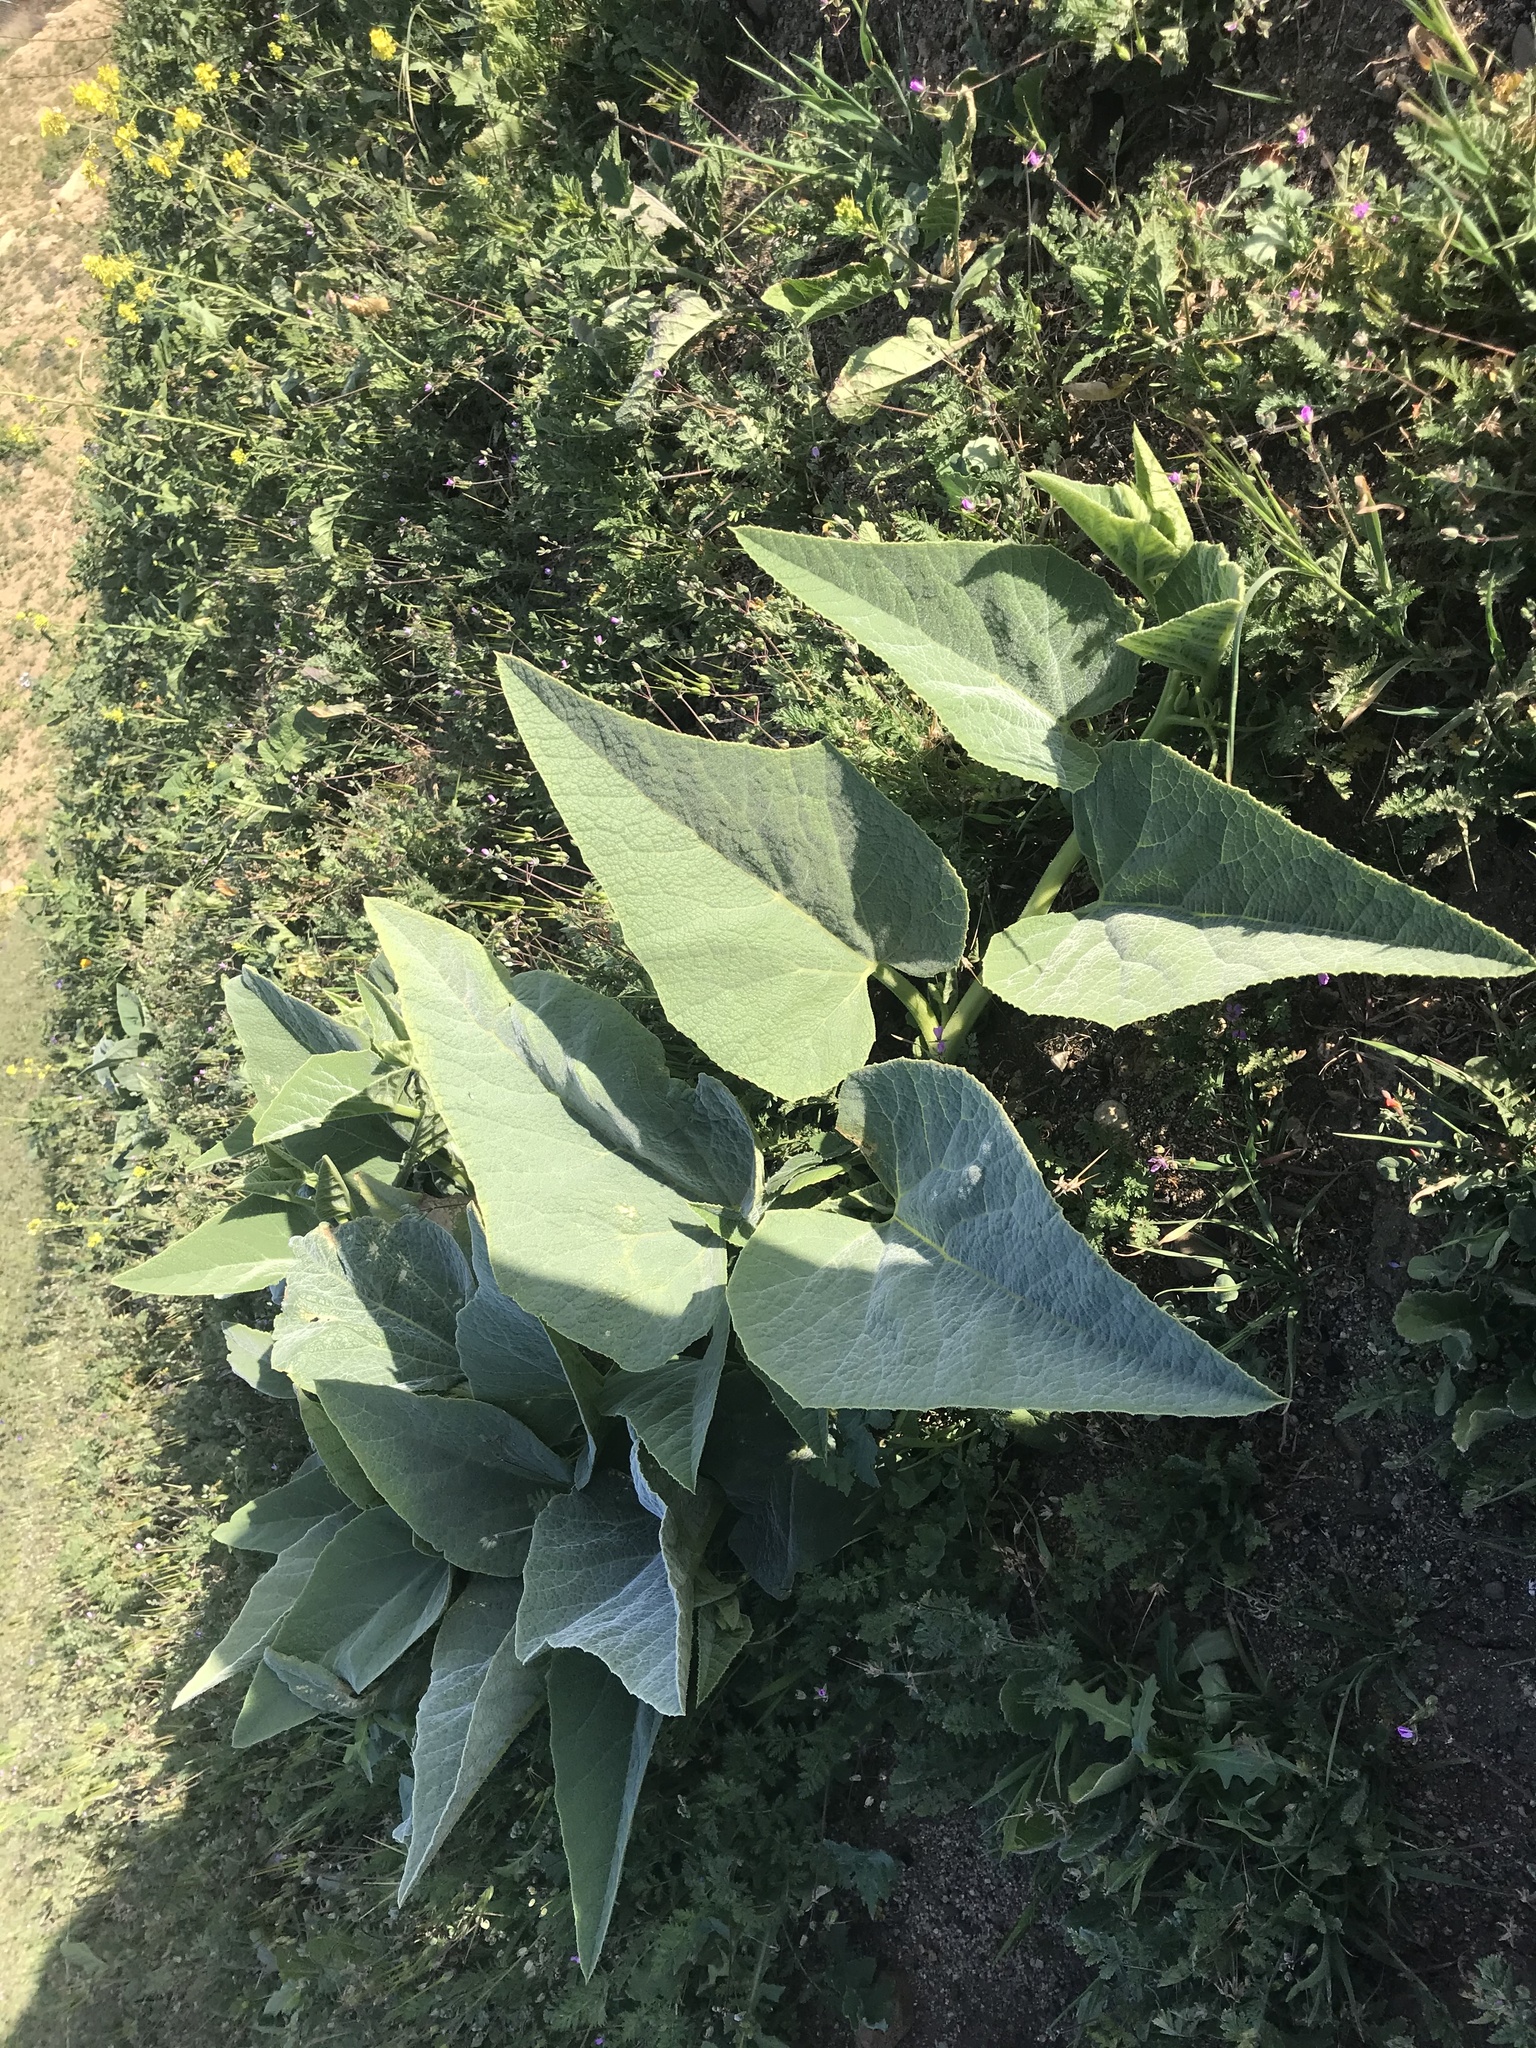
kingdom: Plantae
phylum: Tracheophyta
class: Magnoliopsida
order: Cucurbitales
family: Cucurbitaceae
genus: Cucurbita
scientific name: Cucurbita foetidissima
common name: Buffalo gourd
